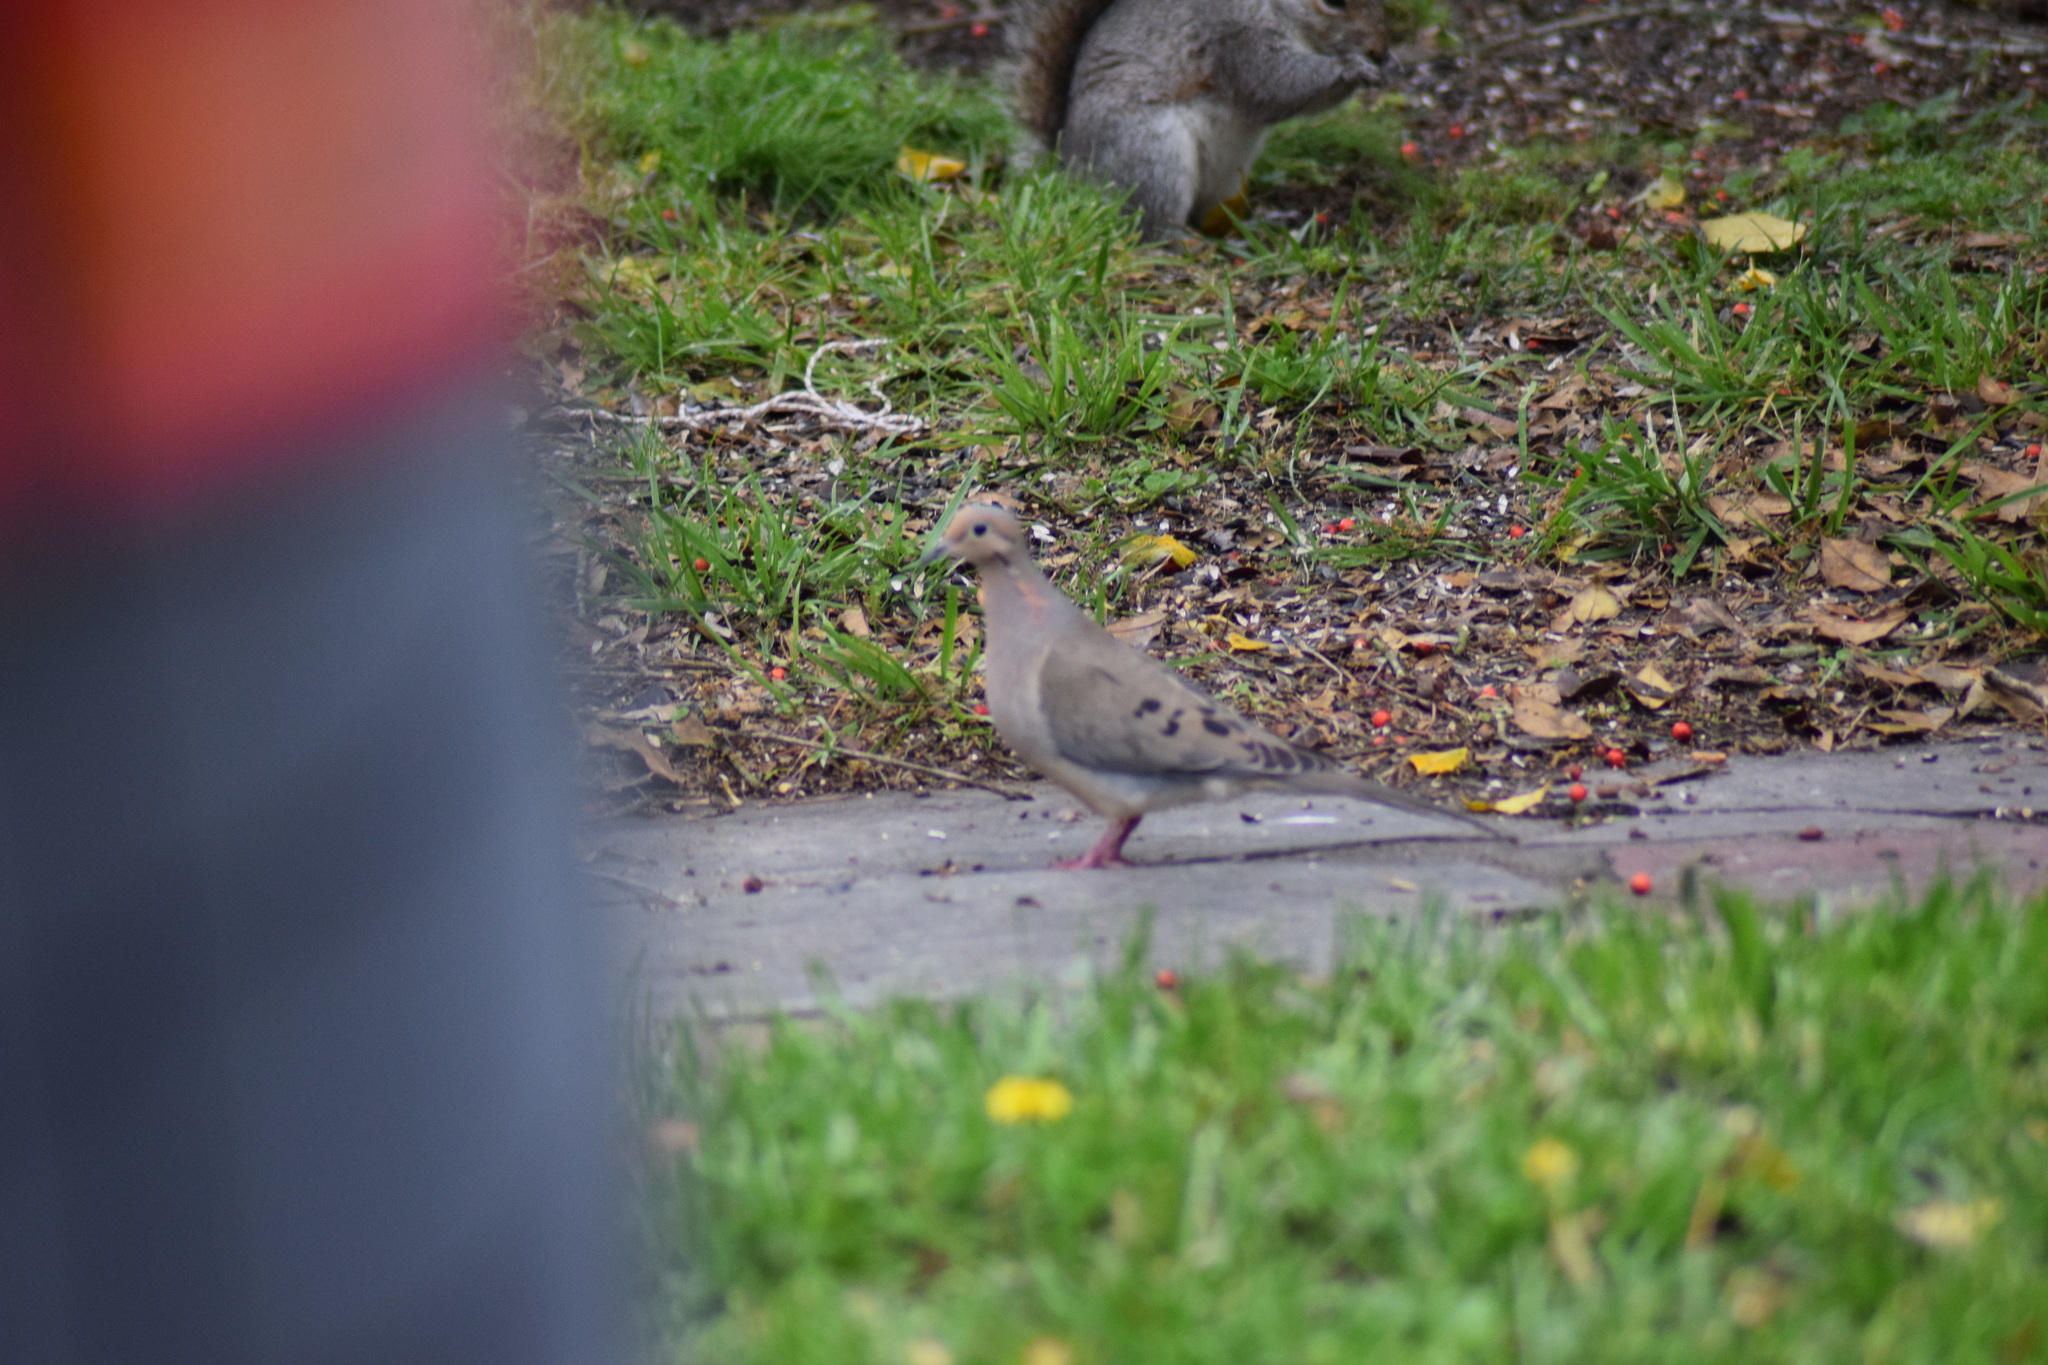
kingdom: Animalia
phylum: Chordata
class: Aves
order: Columbiformes
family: Columbidae
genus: Zenaida
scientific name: Zenaida macroura
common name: Mourning dove
